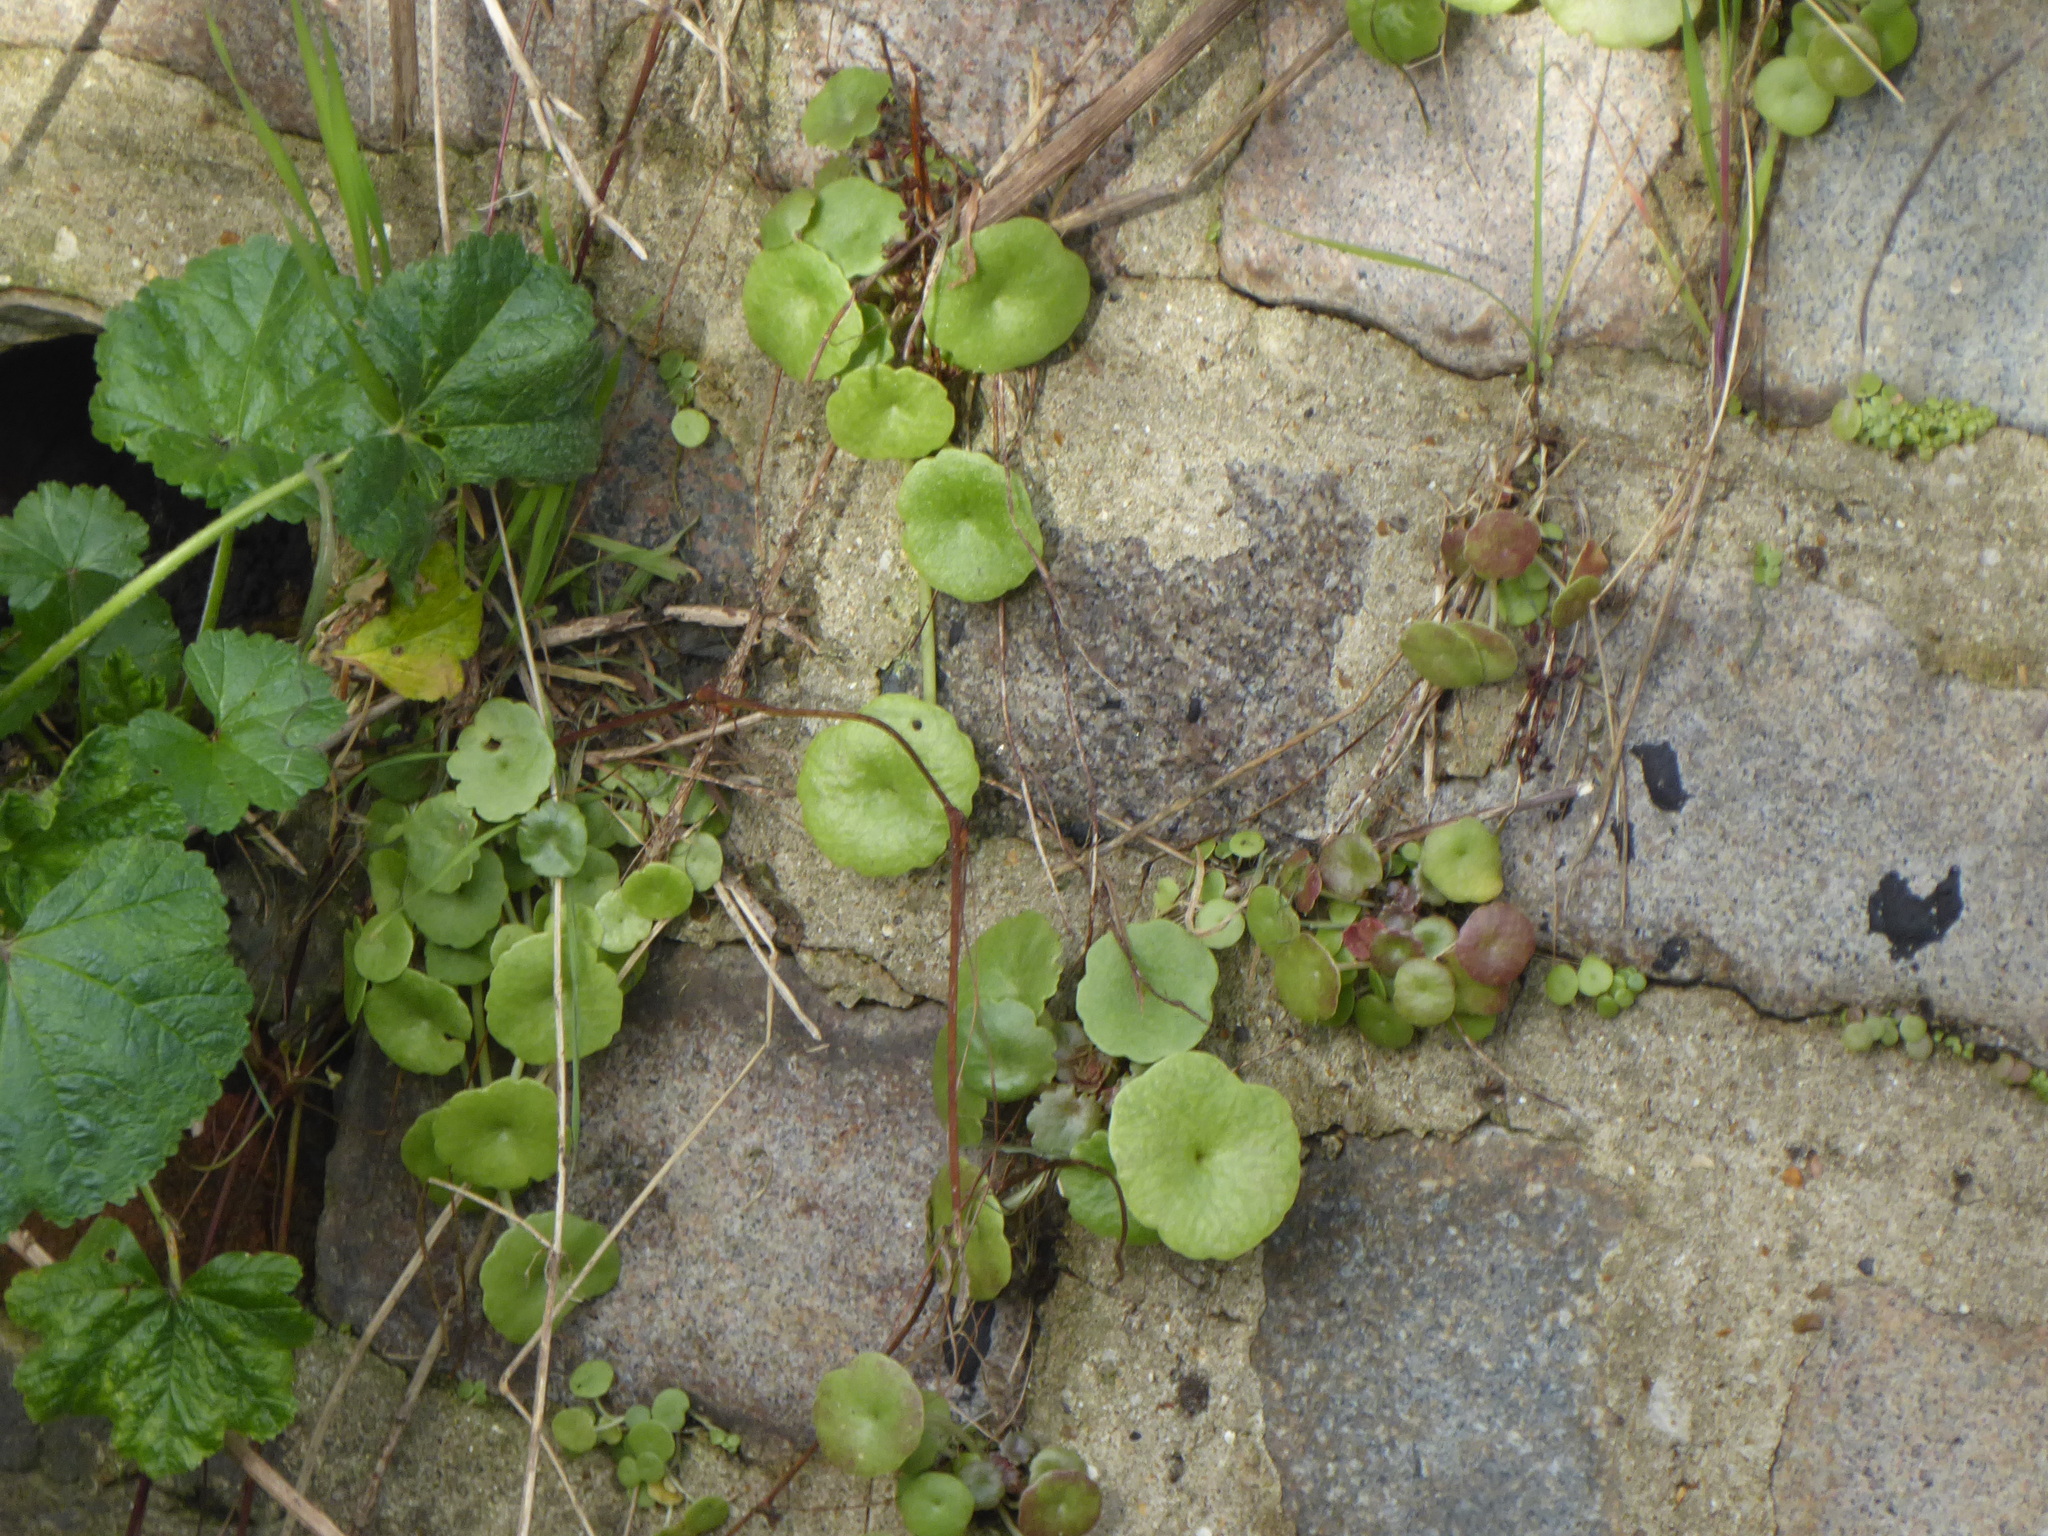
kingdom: Plantae
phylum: Tracheophyta
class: Magnoliopsida
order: Saxifragales
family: Crassulaceae
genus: Umbilicus
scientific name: Umbilicus rupestris
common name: Navelwort
